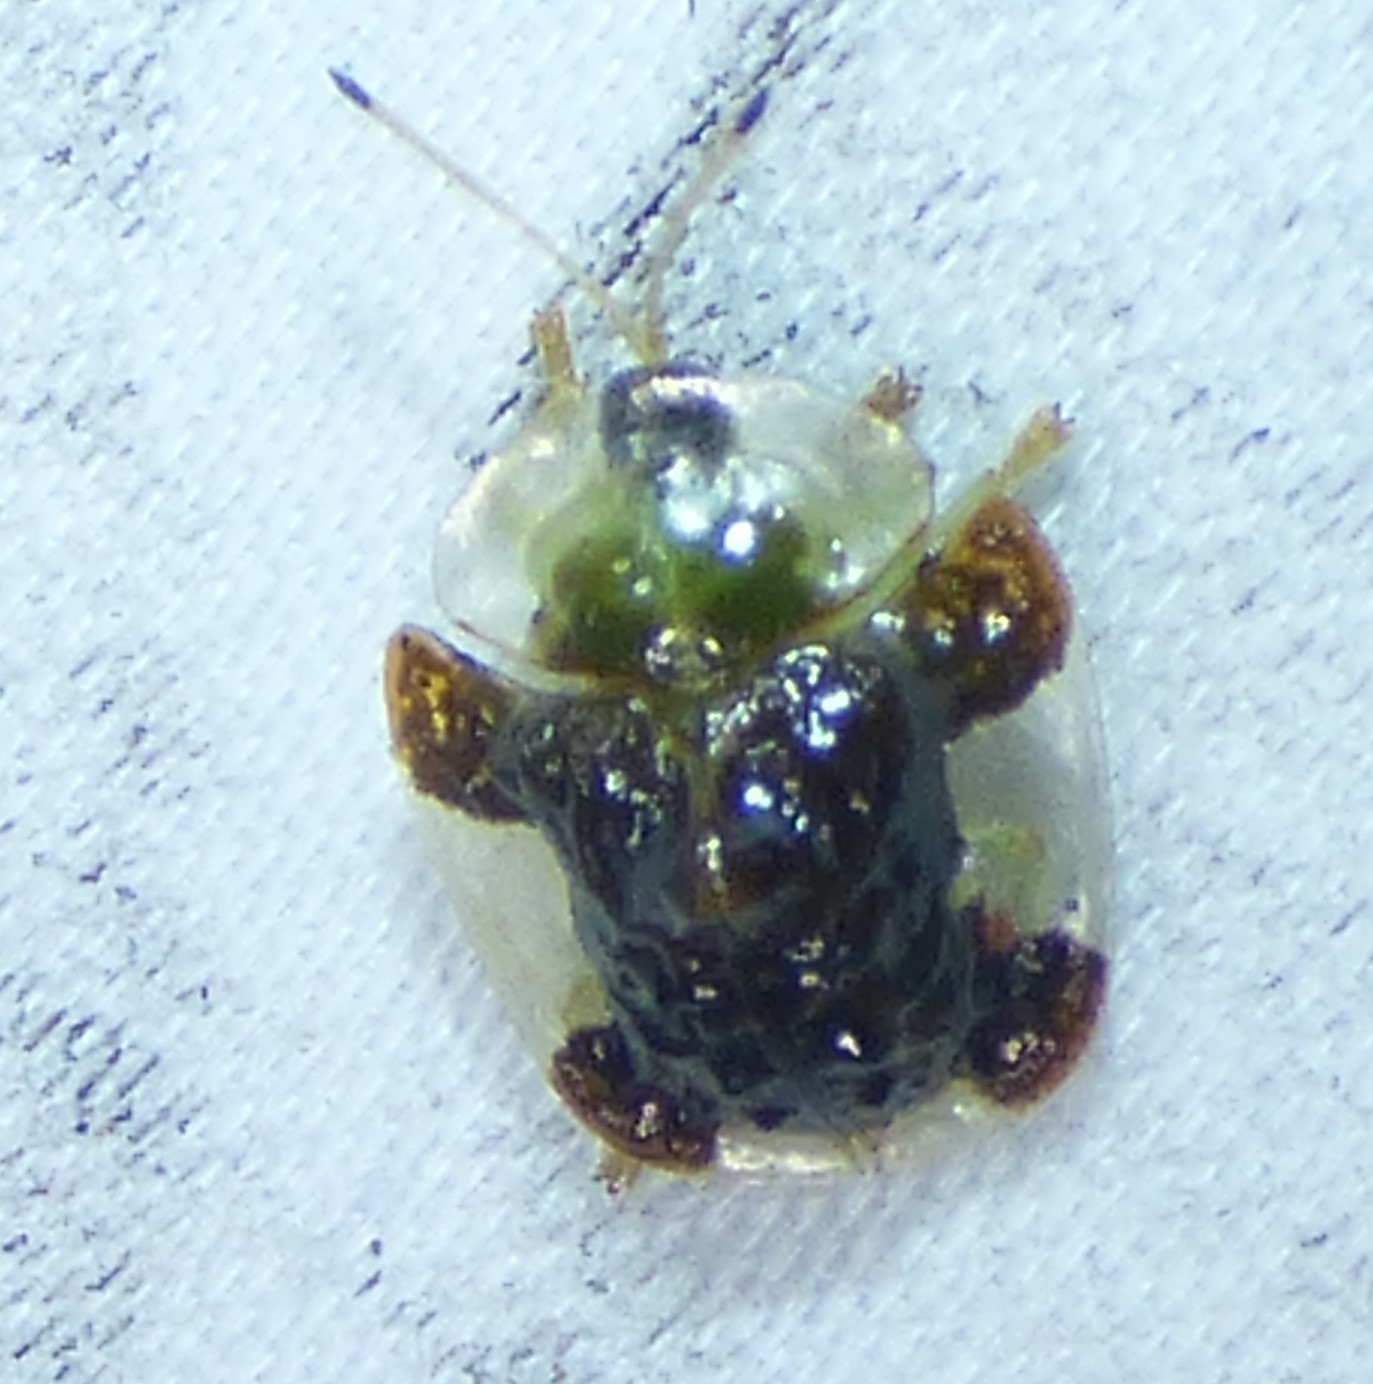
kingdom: Animalia
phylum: Arthropoda
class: Insecta
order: Coleoptera
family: Chrysomelidae
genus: Helocassis
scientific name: Helocassis clavata
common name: Clavate tortoise beetle
